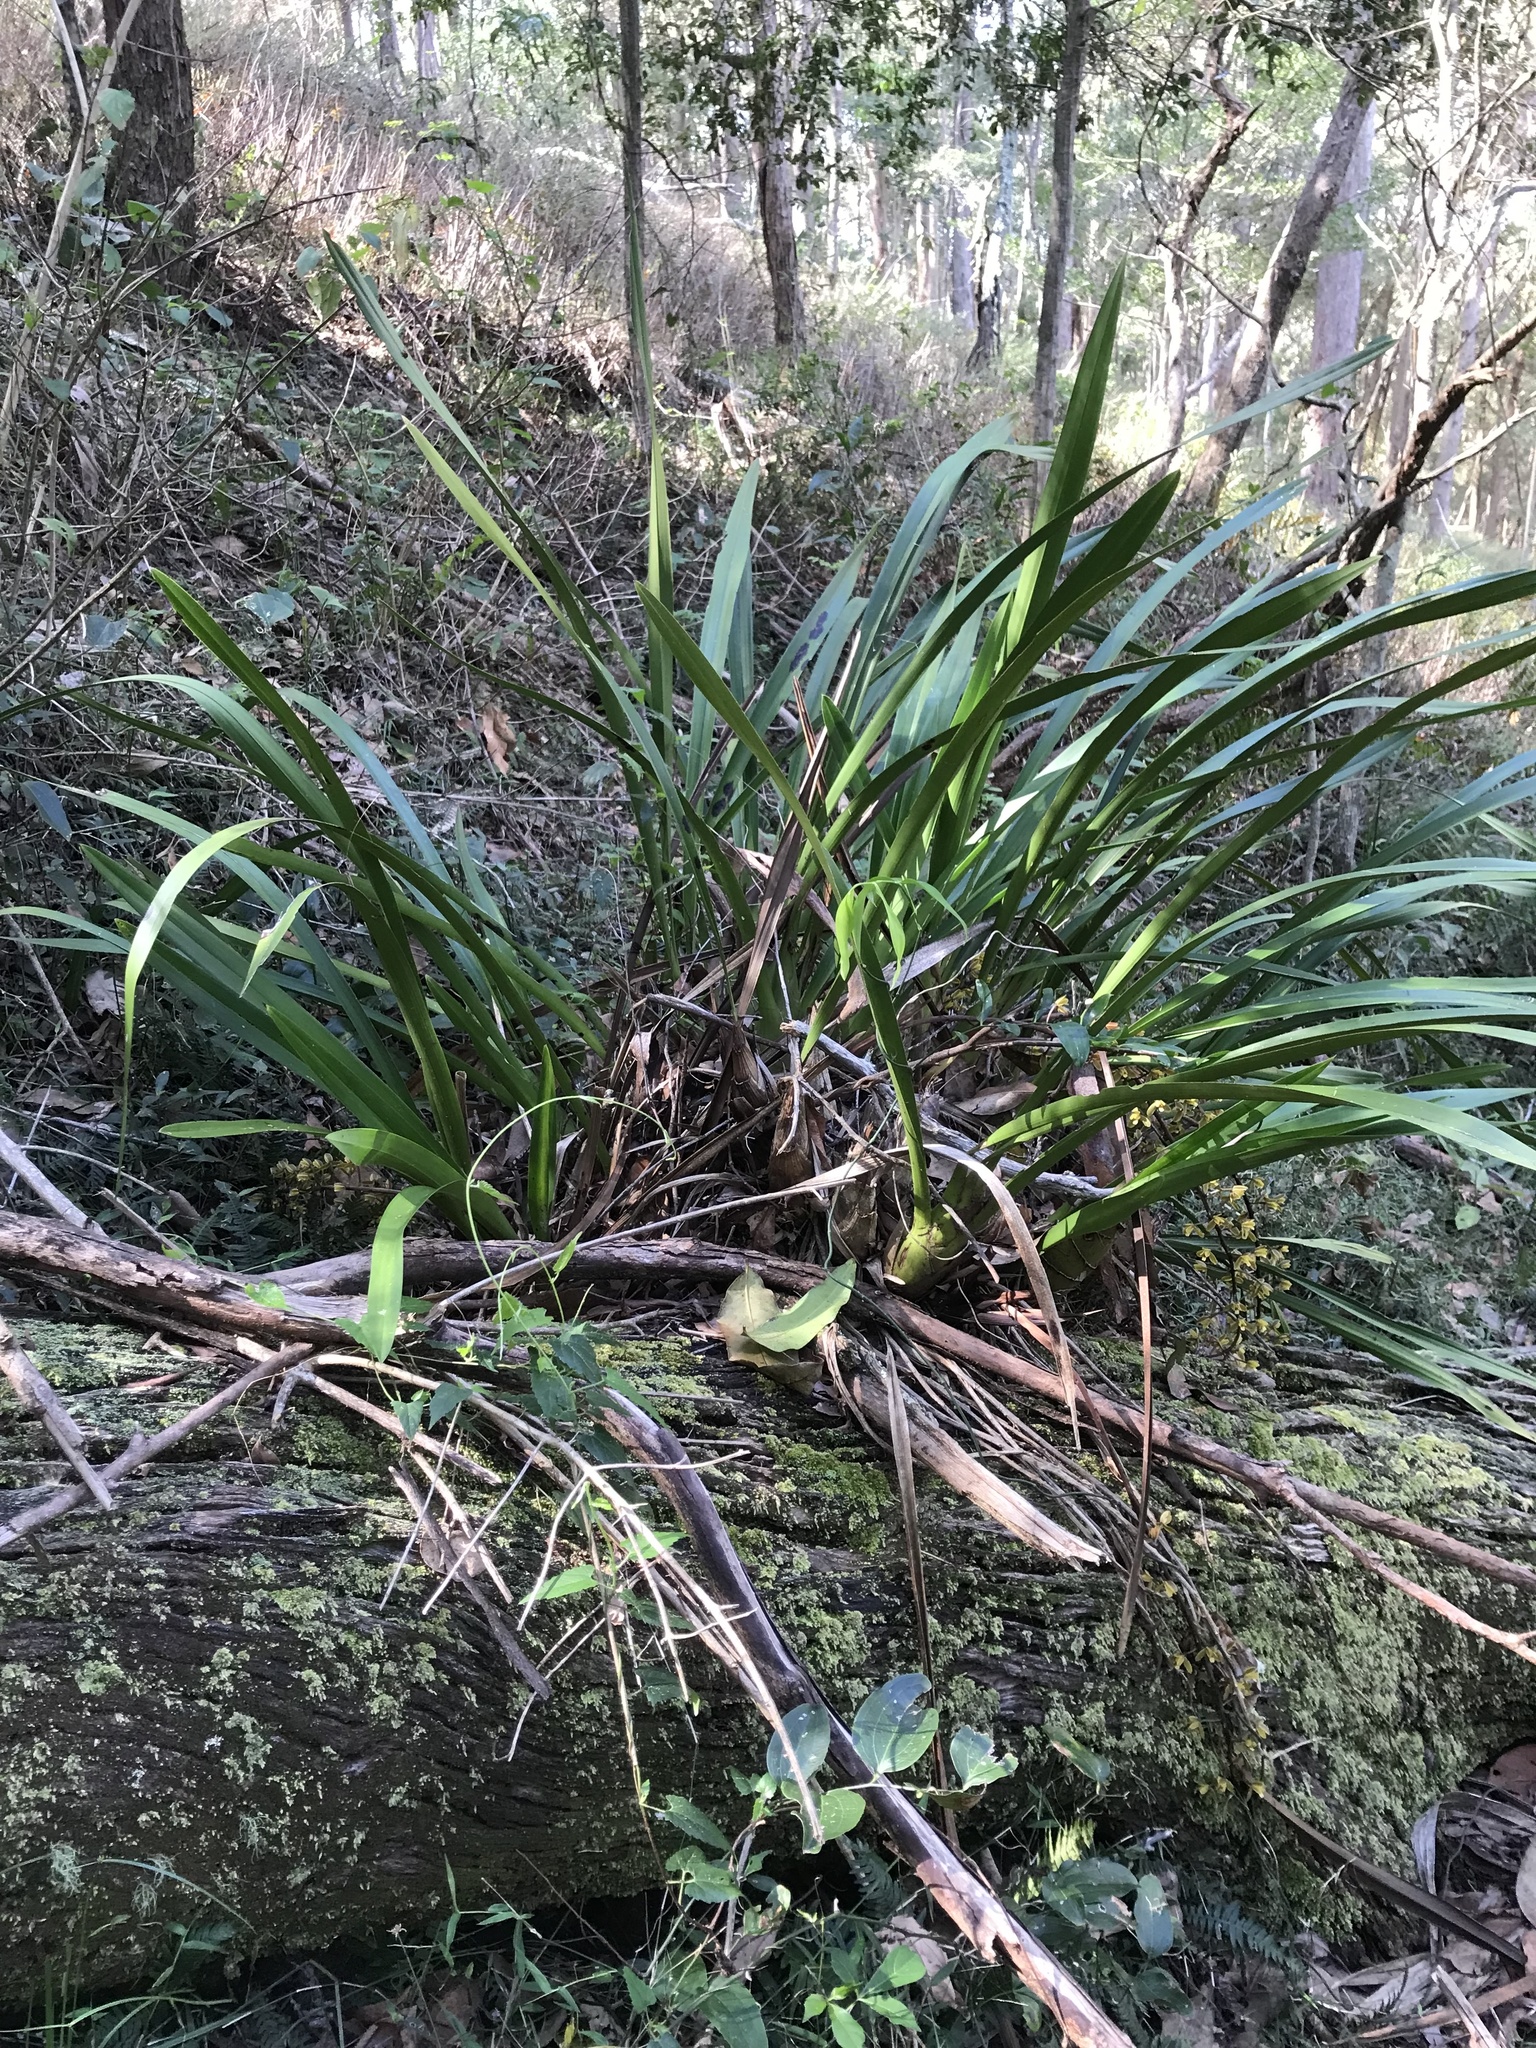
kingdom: Plantae
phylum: Tracheophyta
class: Liliopsida
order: Asparagales
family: Orchidaceae
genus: Cymbidium
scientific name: Cymbidium madidum
